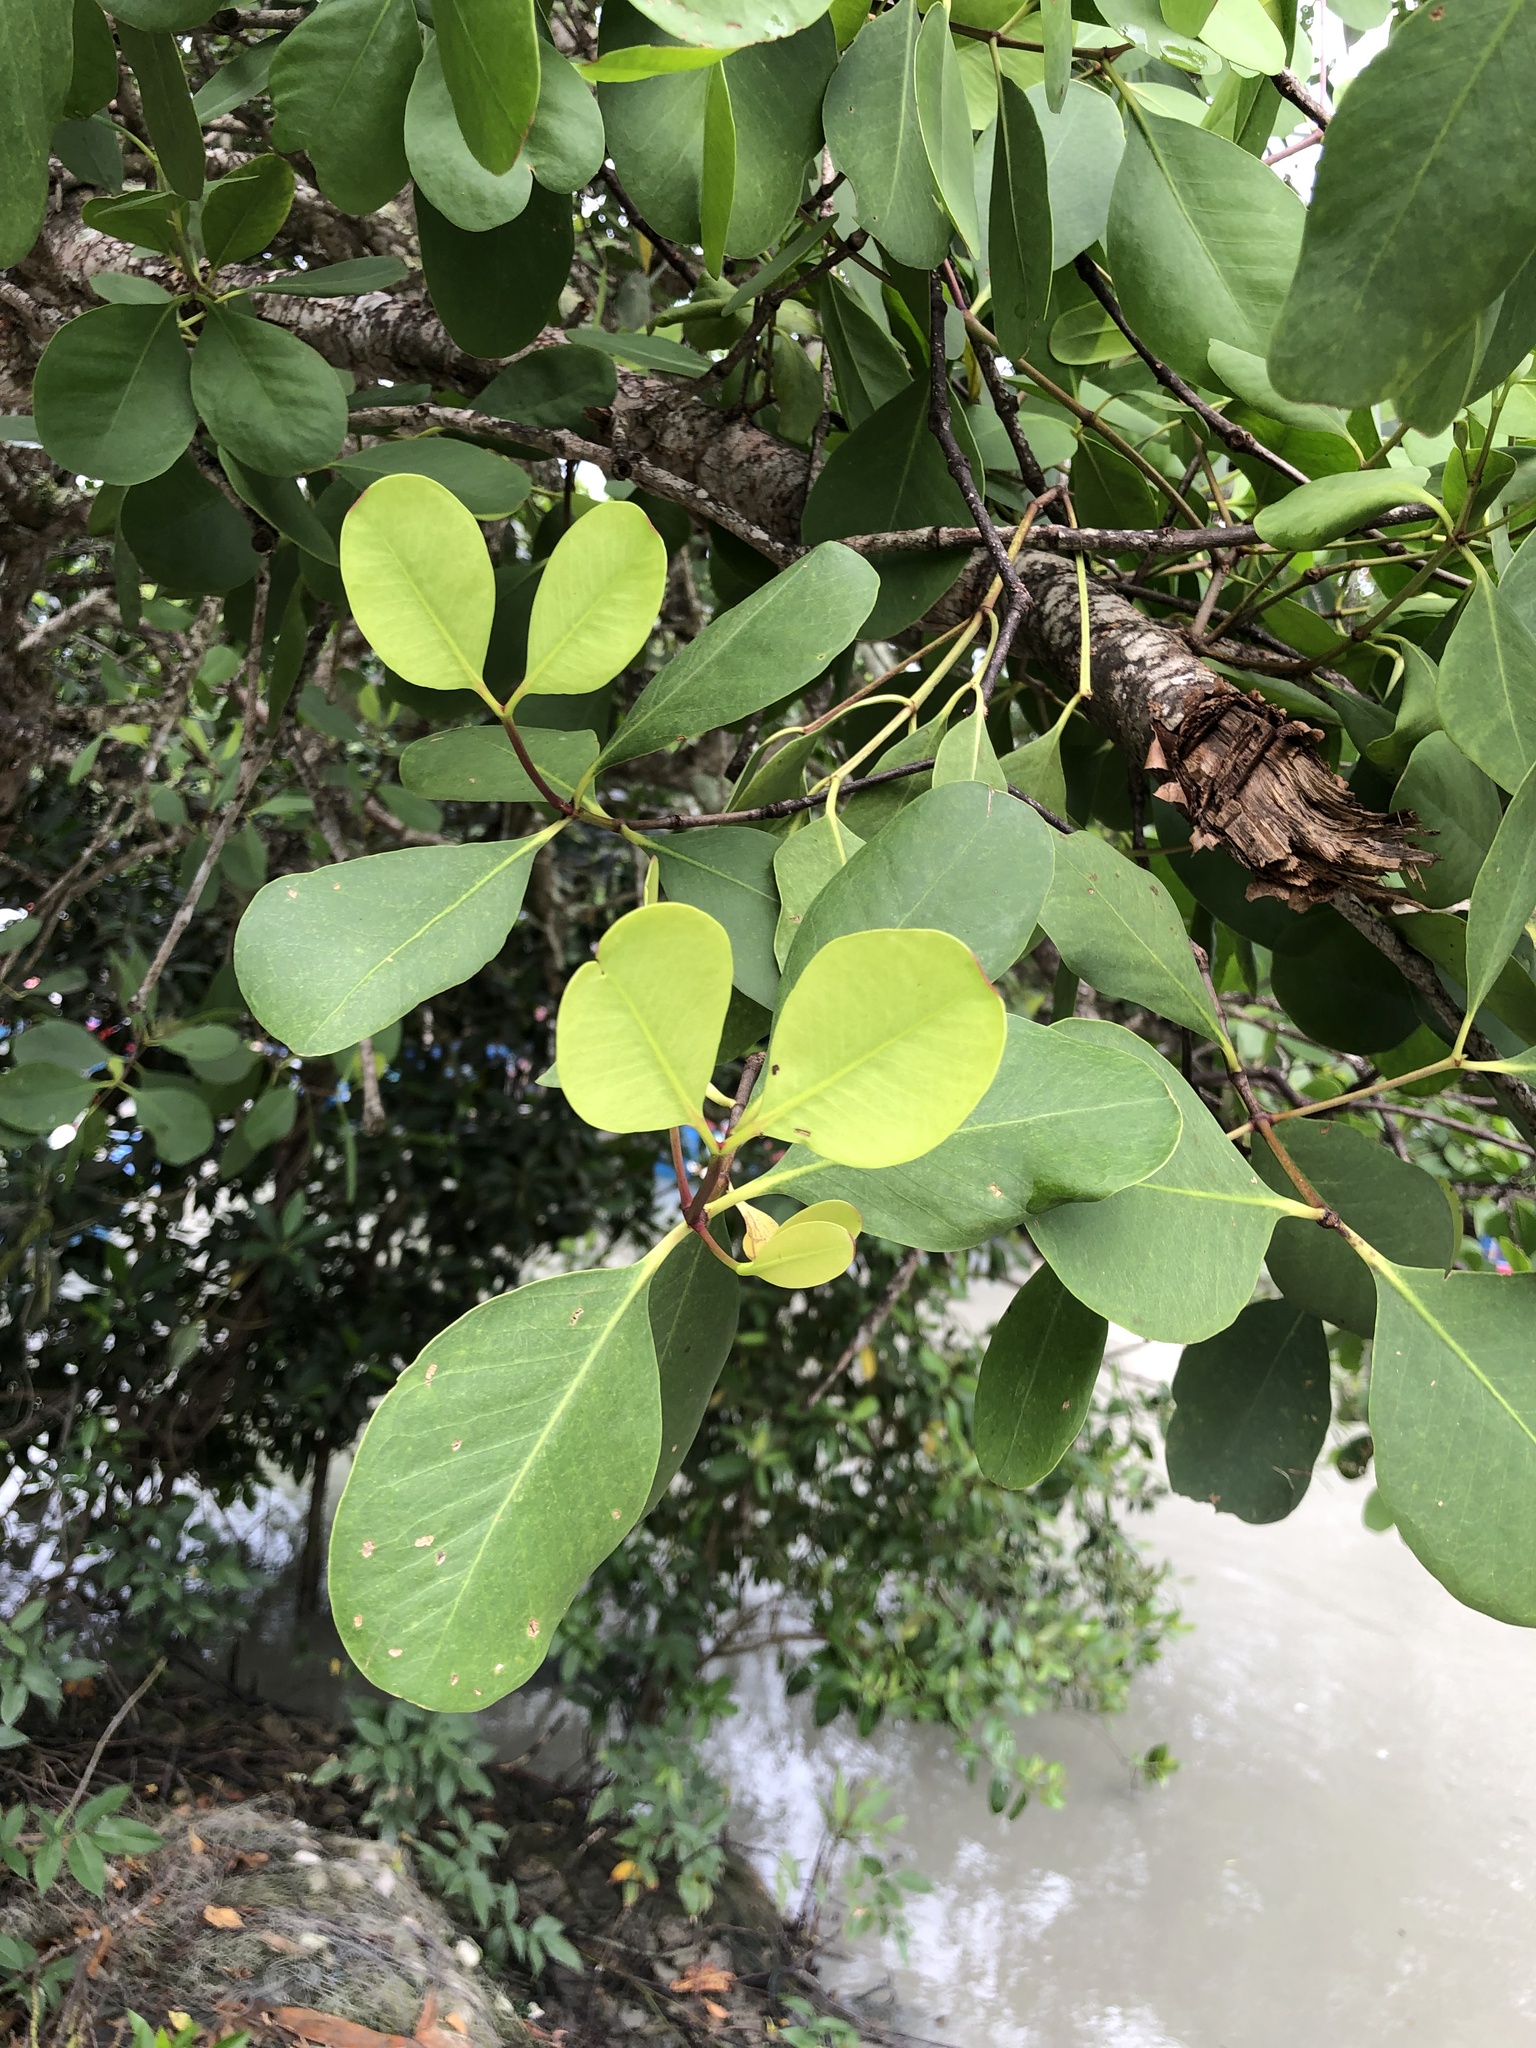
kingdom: Plantae
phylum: Tracheophyta
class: Magnoliopsida
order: Myrtales
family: Lythraceae
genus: Sonneratia
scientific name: Sonneratia alba
